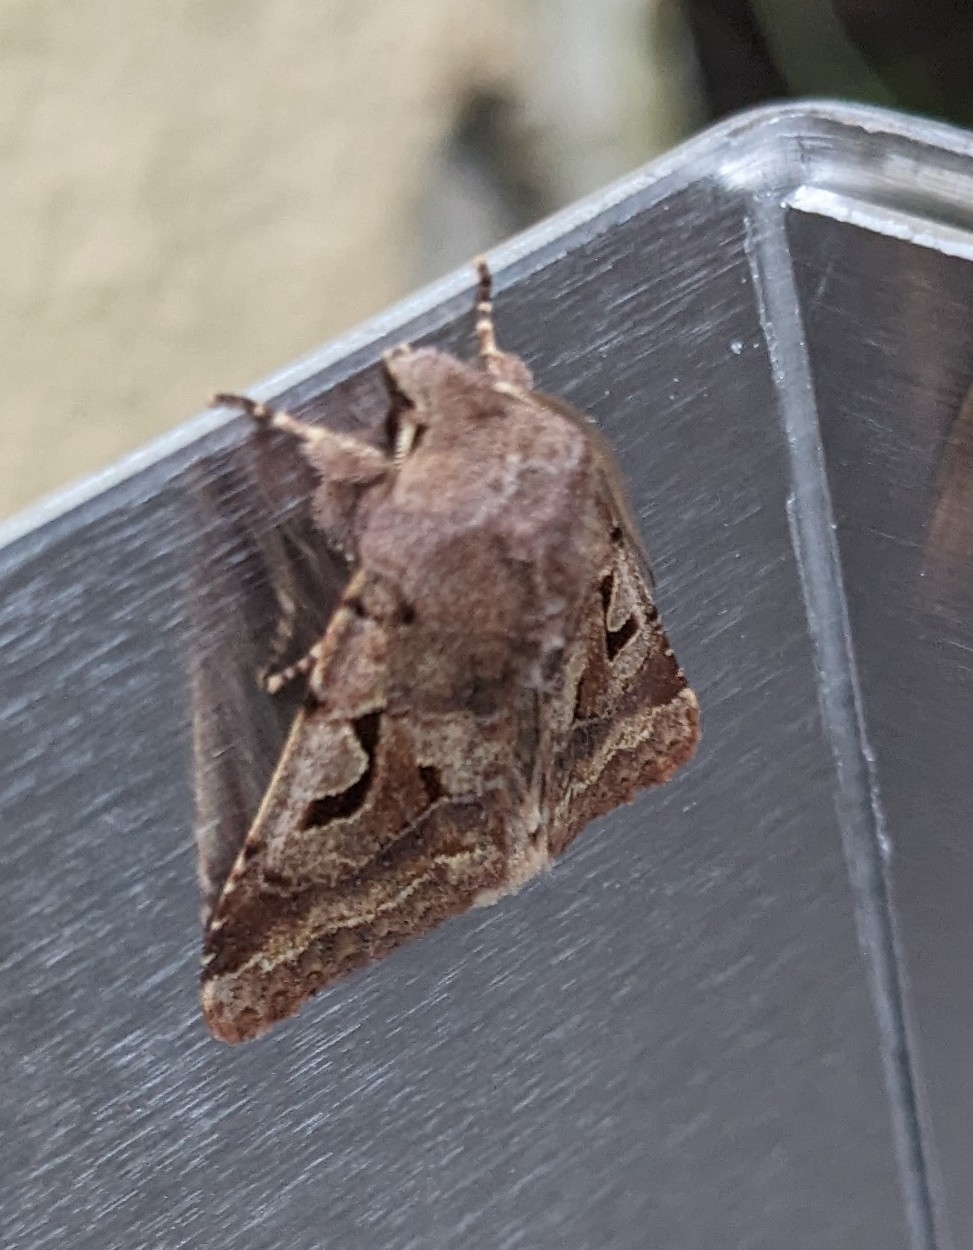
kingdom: Animalia
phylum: Arthropoda
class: Insecta
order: Lepidoptera
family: Noctuidae
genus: Orthosia
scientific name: Orthosia gothica
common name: Hebrew character
